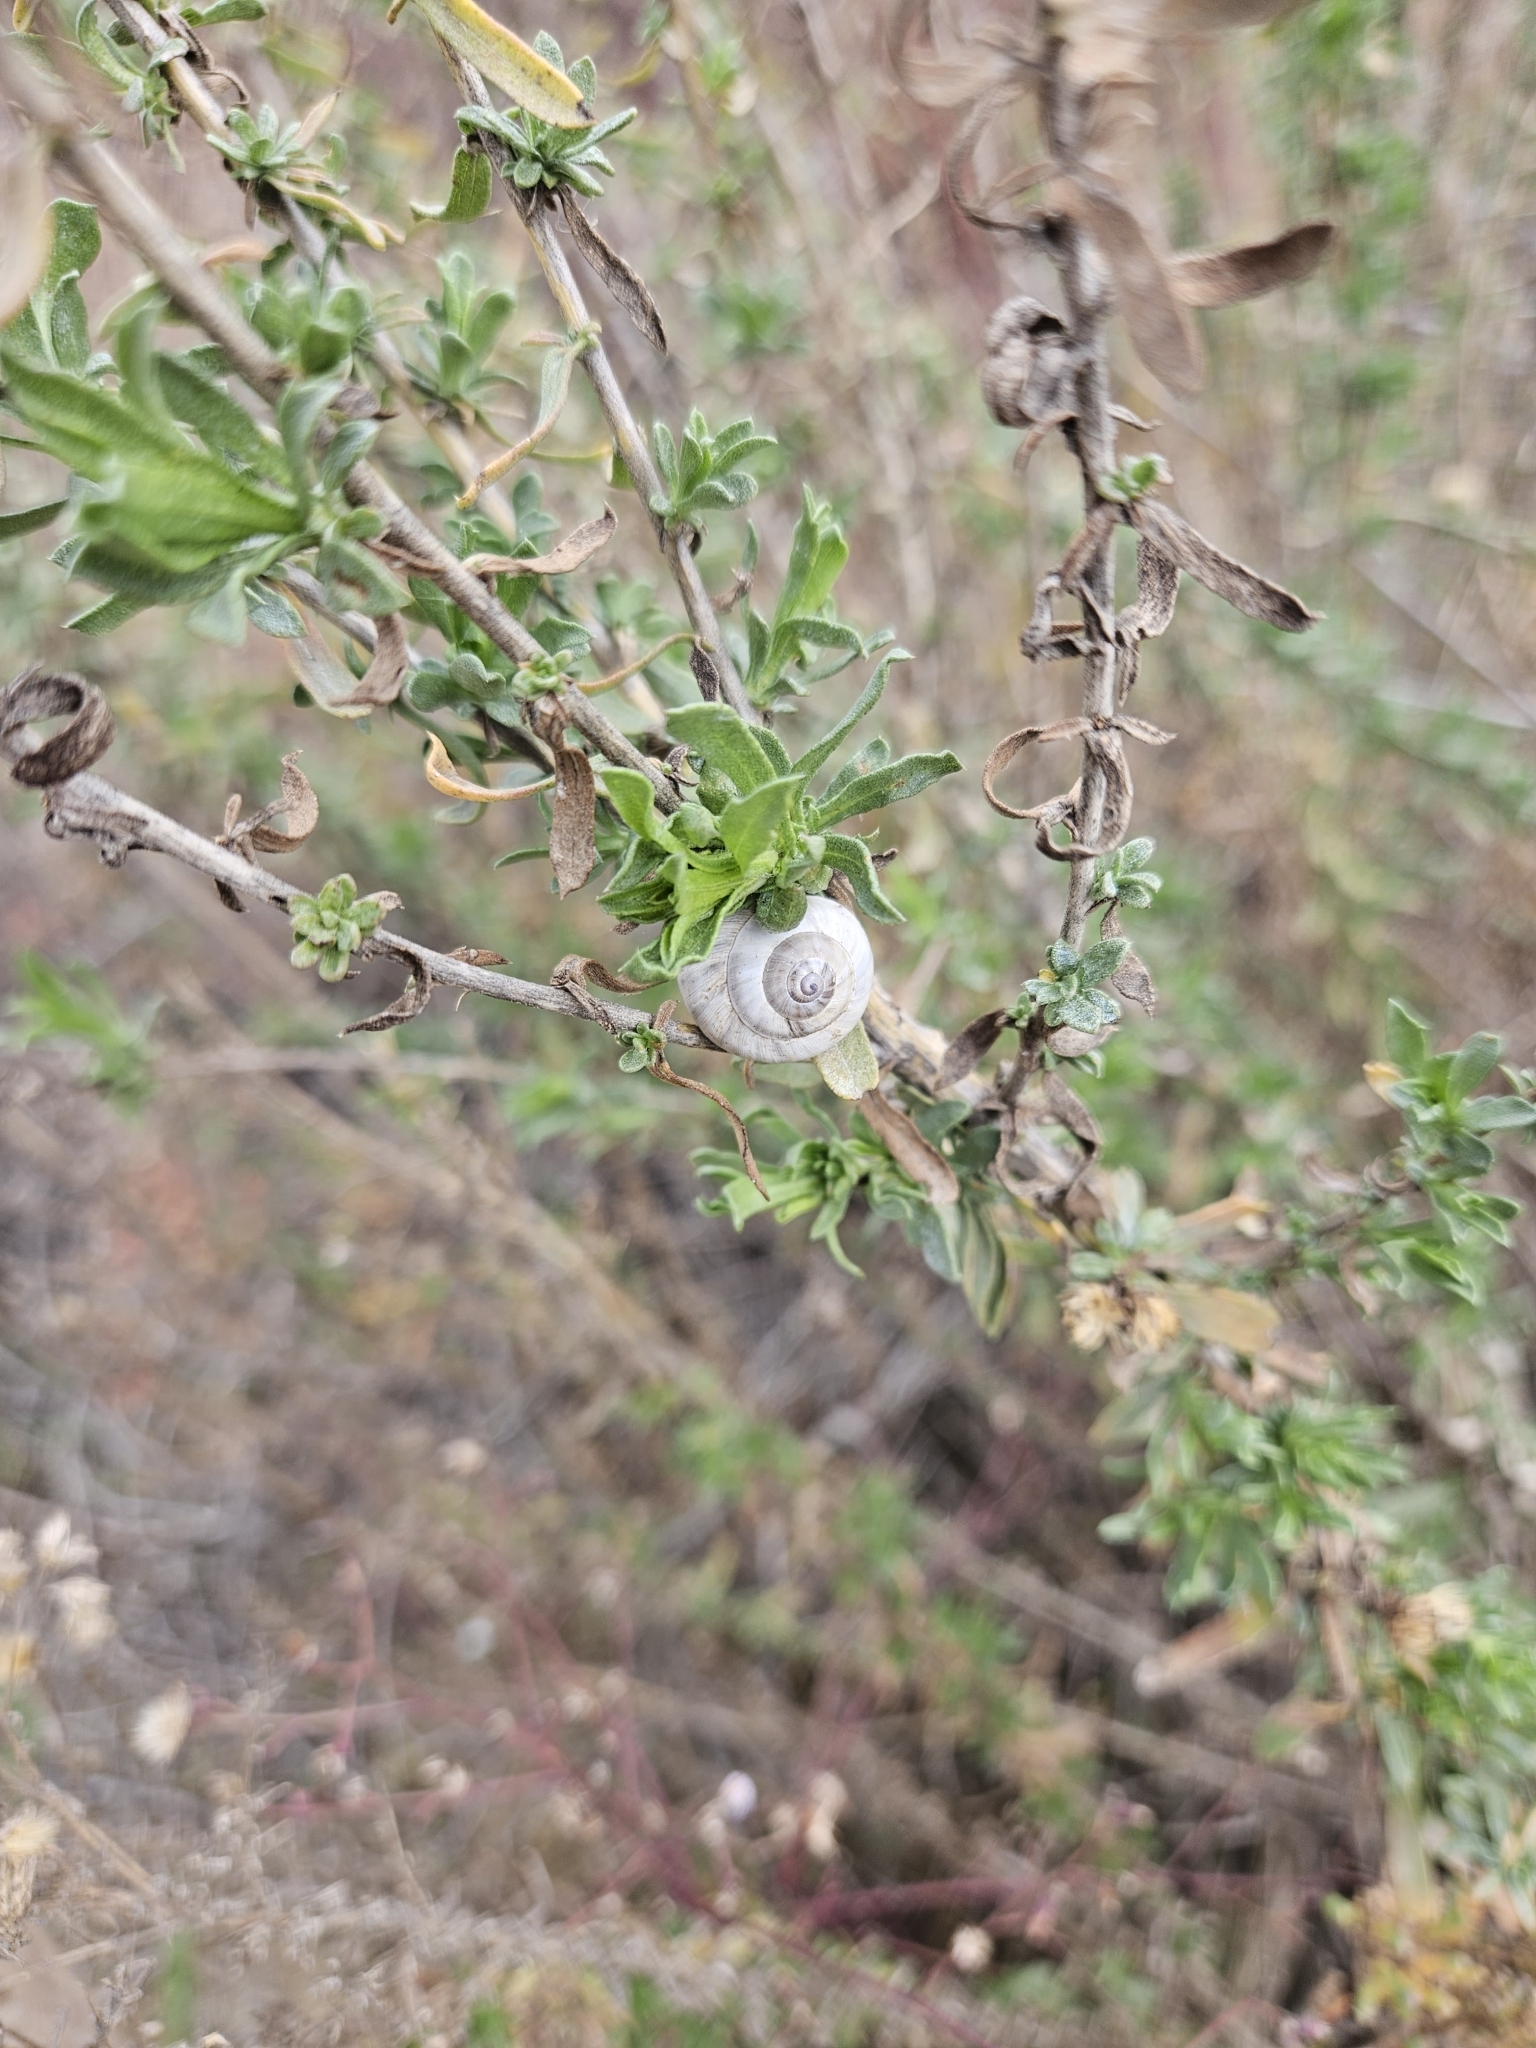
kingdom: Animalia
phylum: Mollusca
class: Gastropoda
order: Stylommatophora
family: Helicidae
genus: Theba
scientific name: Theba pisana
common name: White snail
